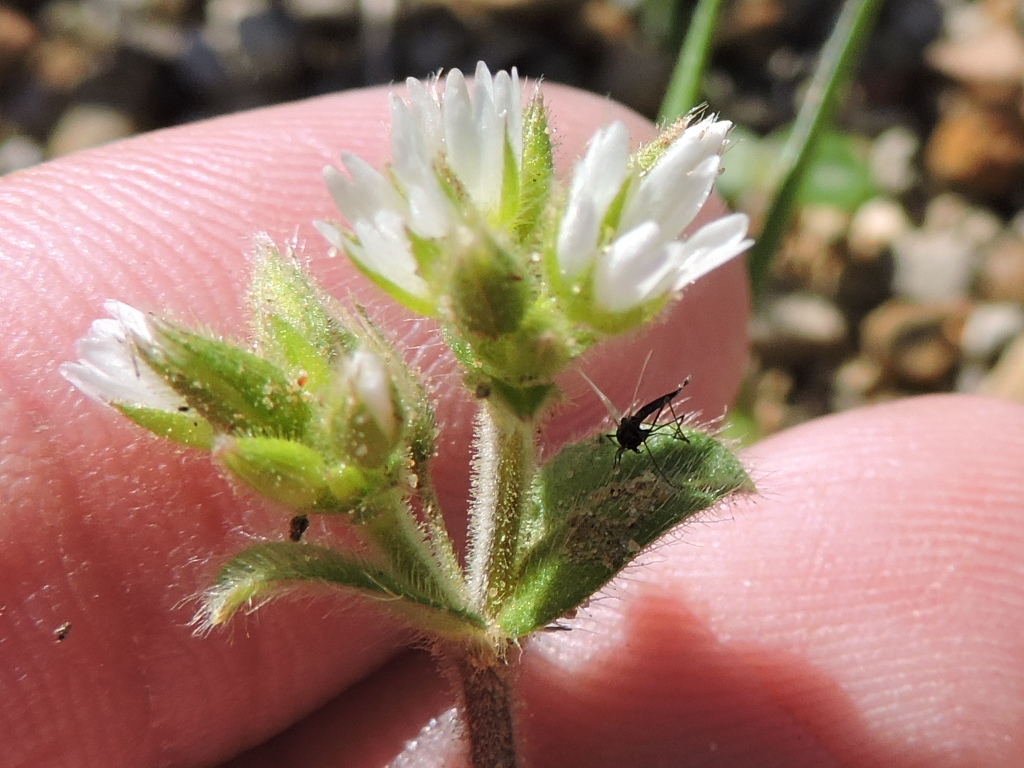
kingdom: Plantae
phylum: Tracheophyta
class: Magnoliopsida
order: Caryophyllales
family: Caryophyllaceae
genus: Cerastium
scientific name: Cerastium glomeratum
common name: Sticky chickweed
